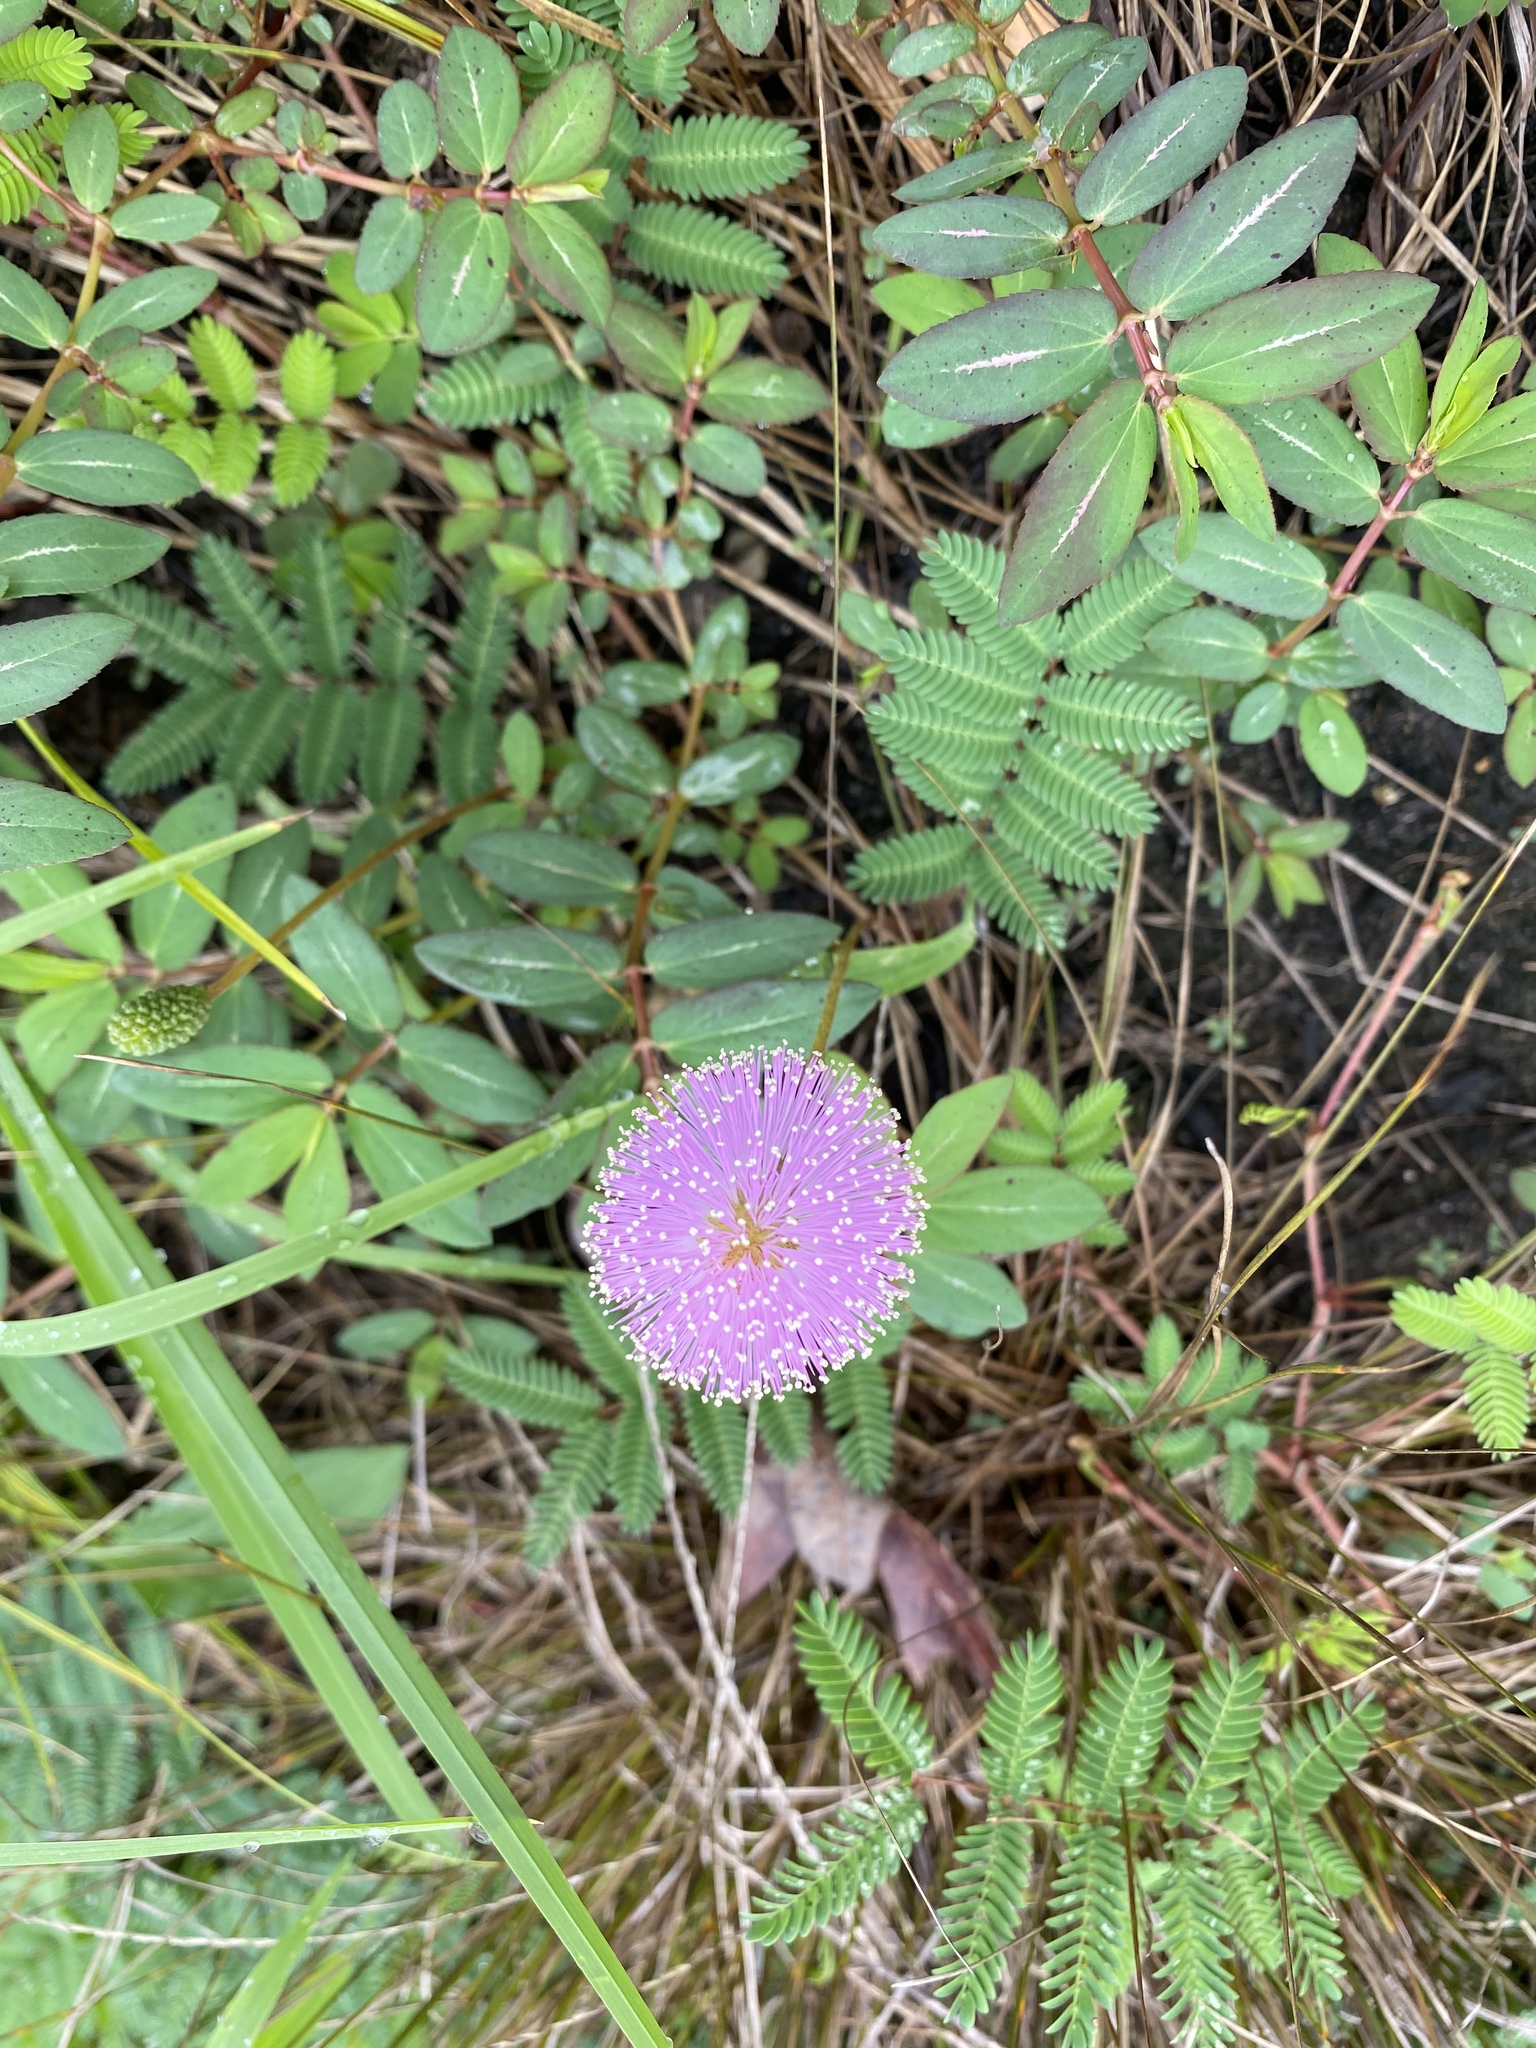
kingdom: Plantae
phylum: Tracheophyta
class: Magnoliopsida
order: Fabales
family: Fabaceae
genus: Mimosa
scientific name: Mimosa strigillosa
